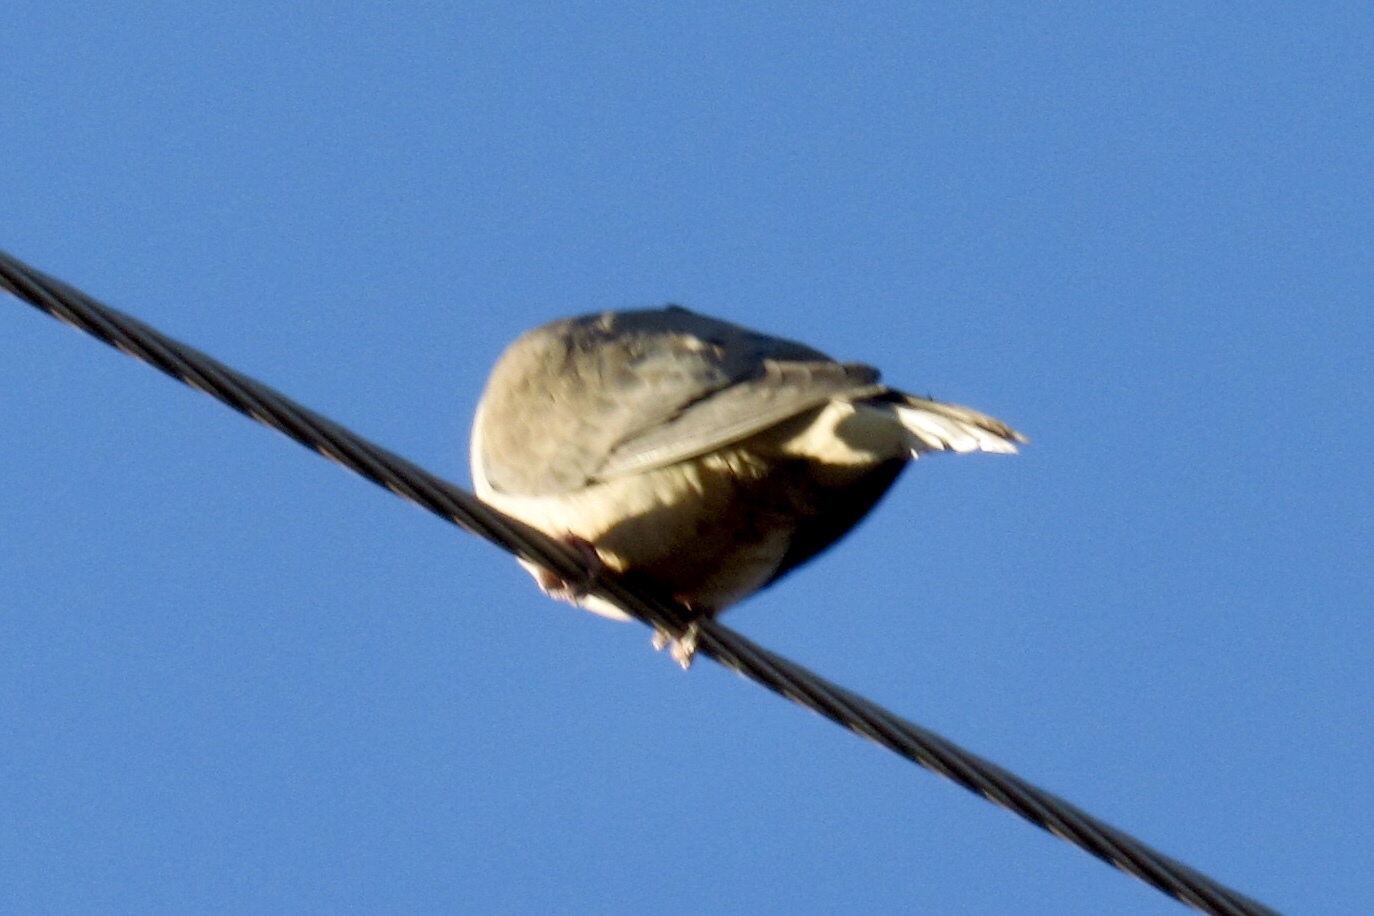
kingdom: Animalia
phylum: Chordata
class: Aves
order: Columbiformes
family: Columbidae
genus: Zenaida
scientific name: Zenaida macroura
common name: Mourning dove
